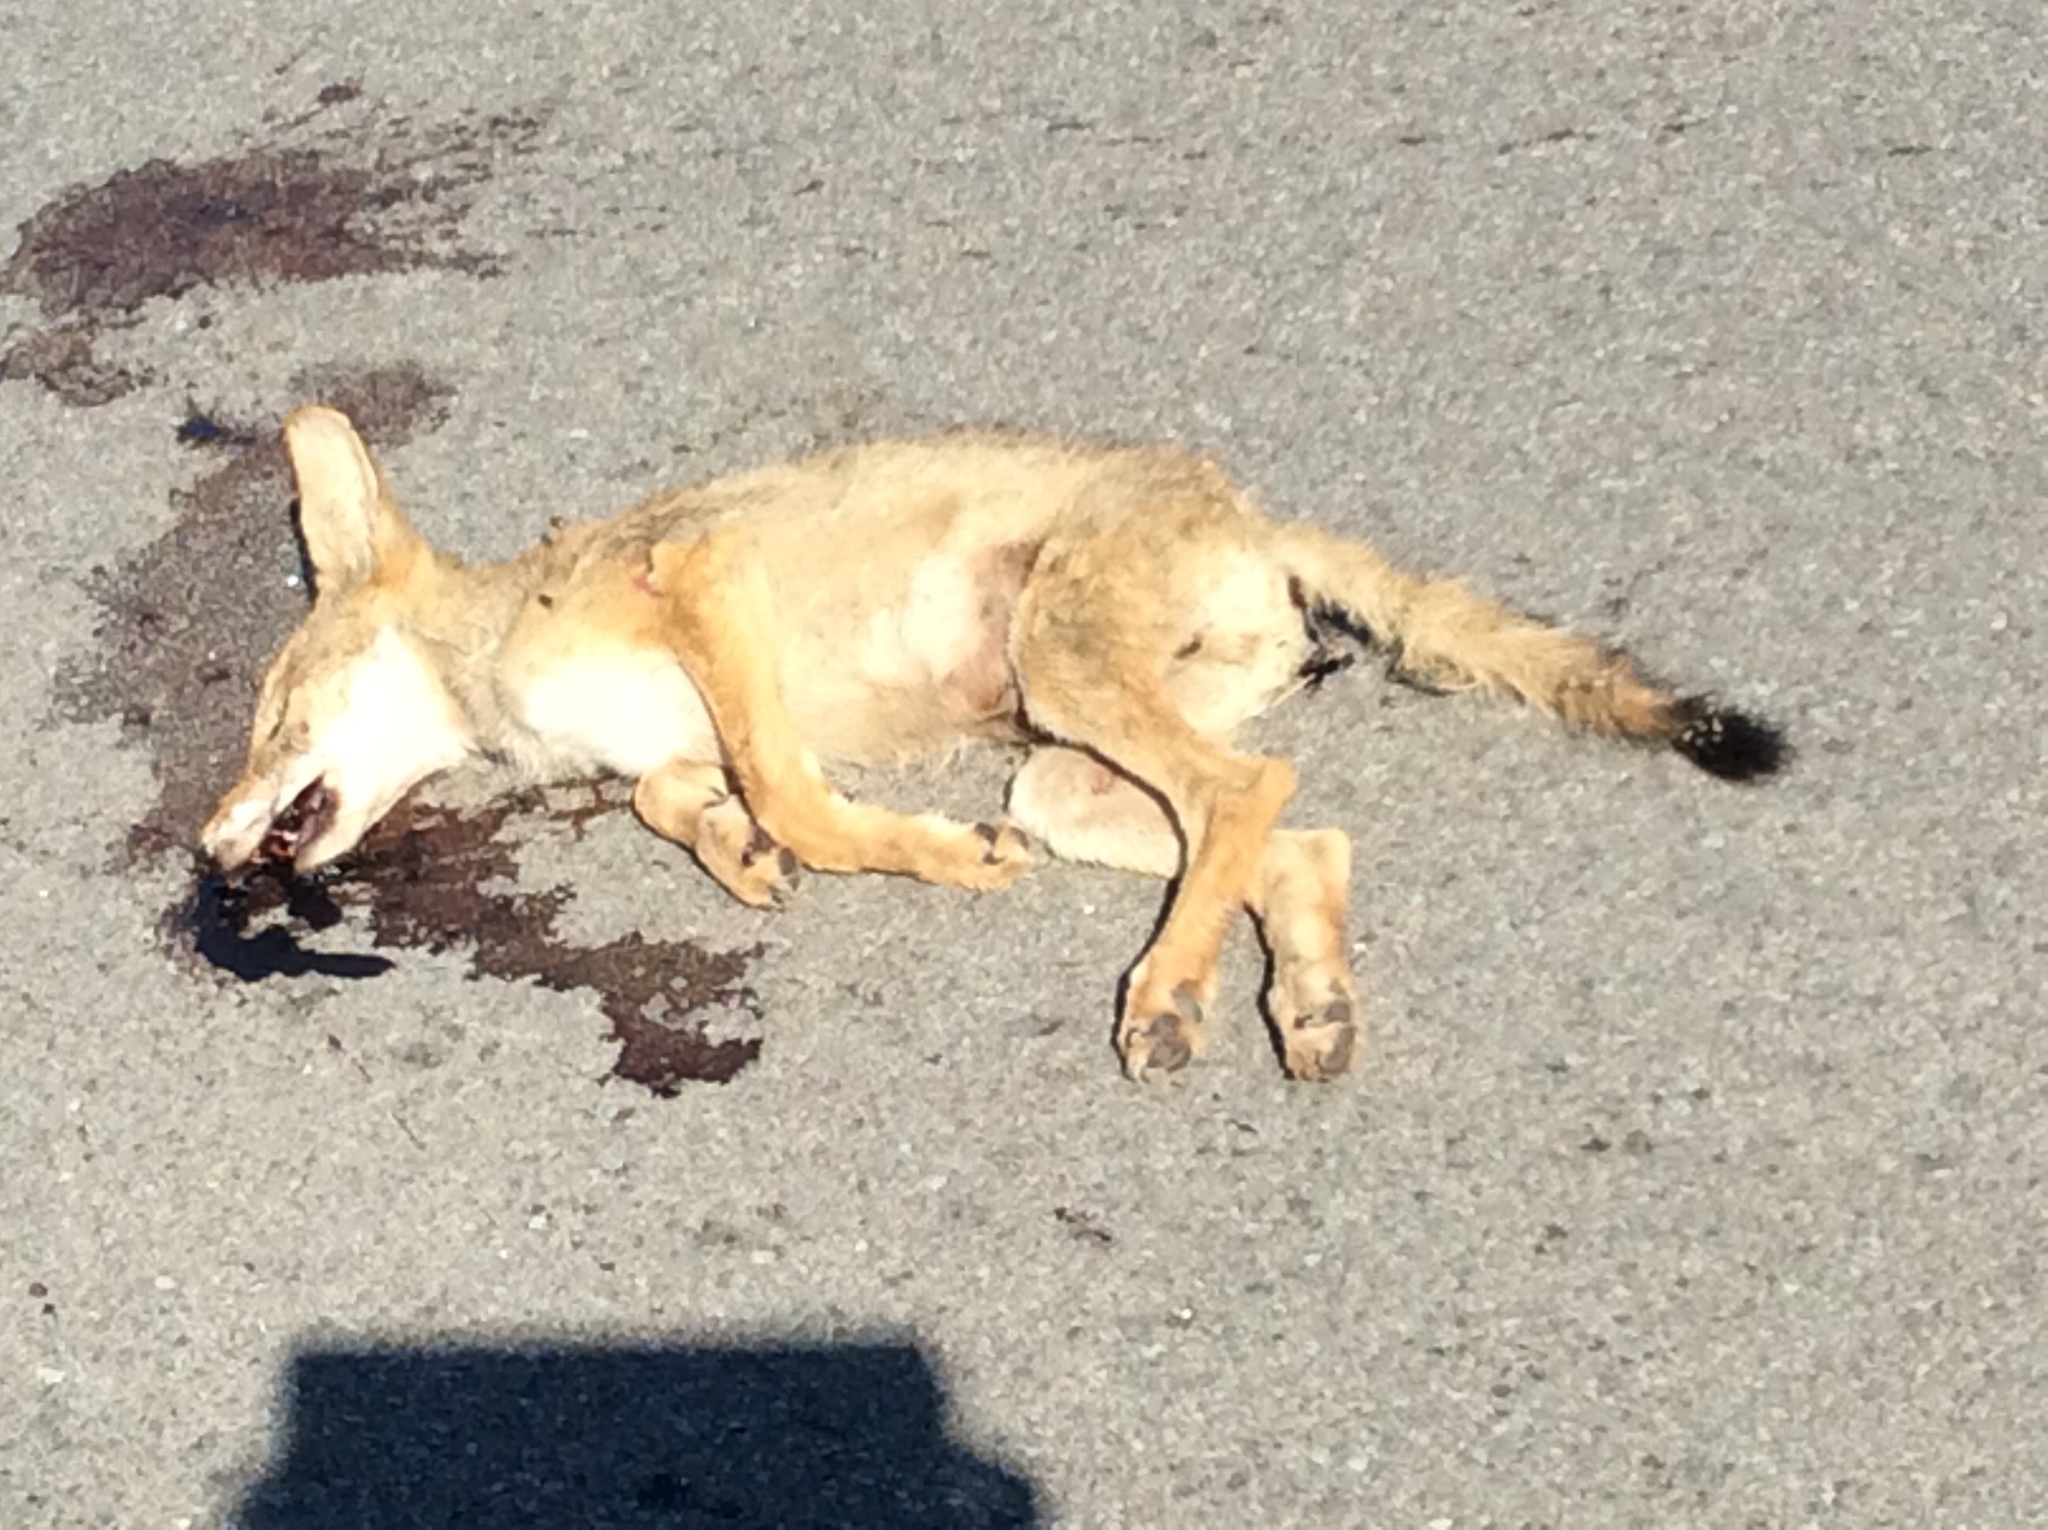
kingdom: Animalia
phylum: Chordata
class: Mammalia
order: Carnivora
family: Canidae
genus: Canis
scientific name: Canis latrans
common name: Coyote
